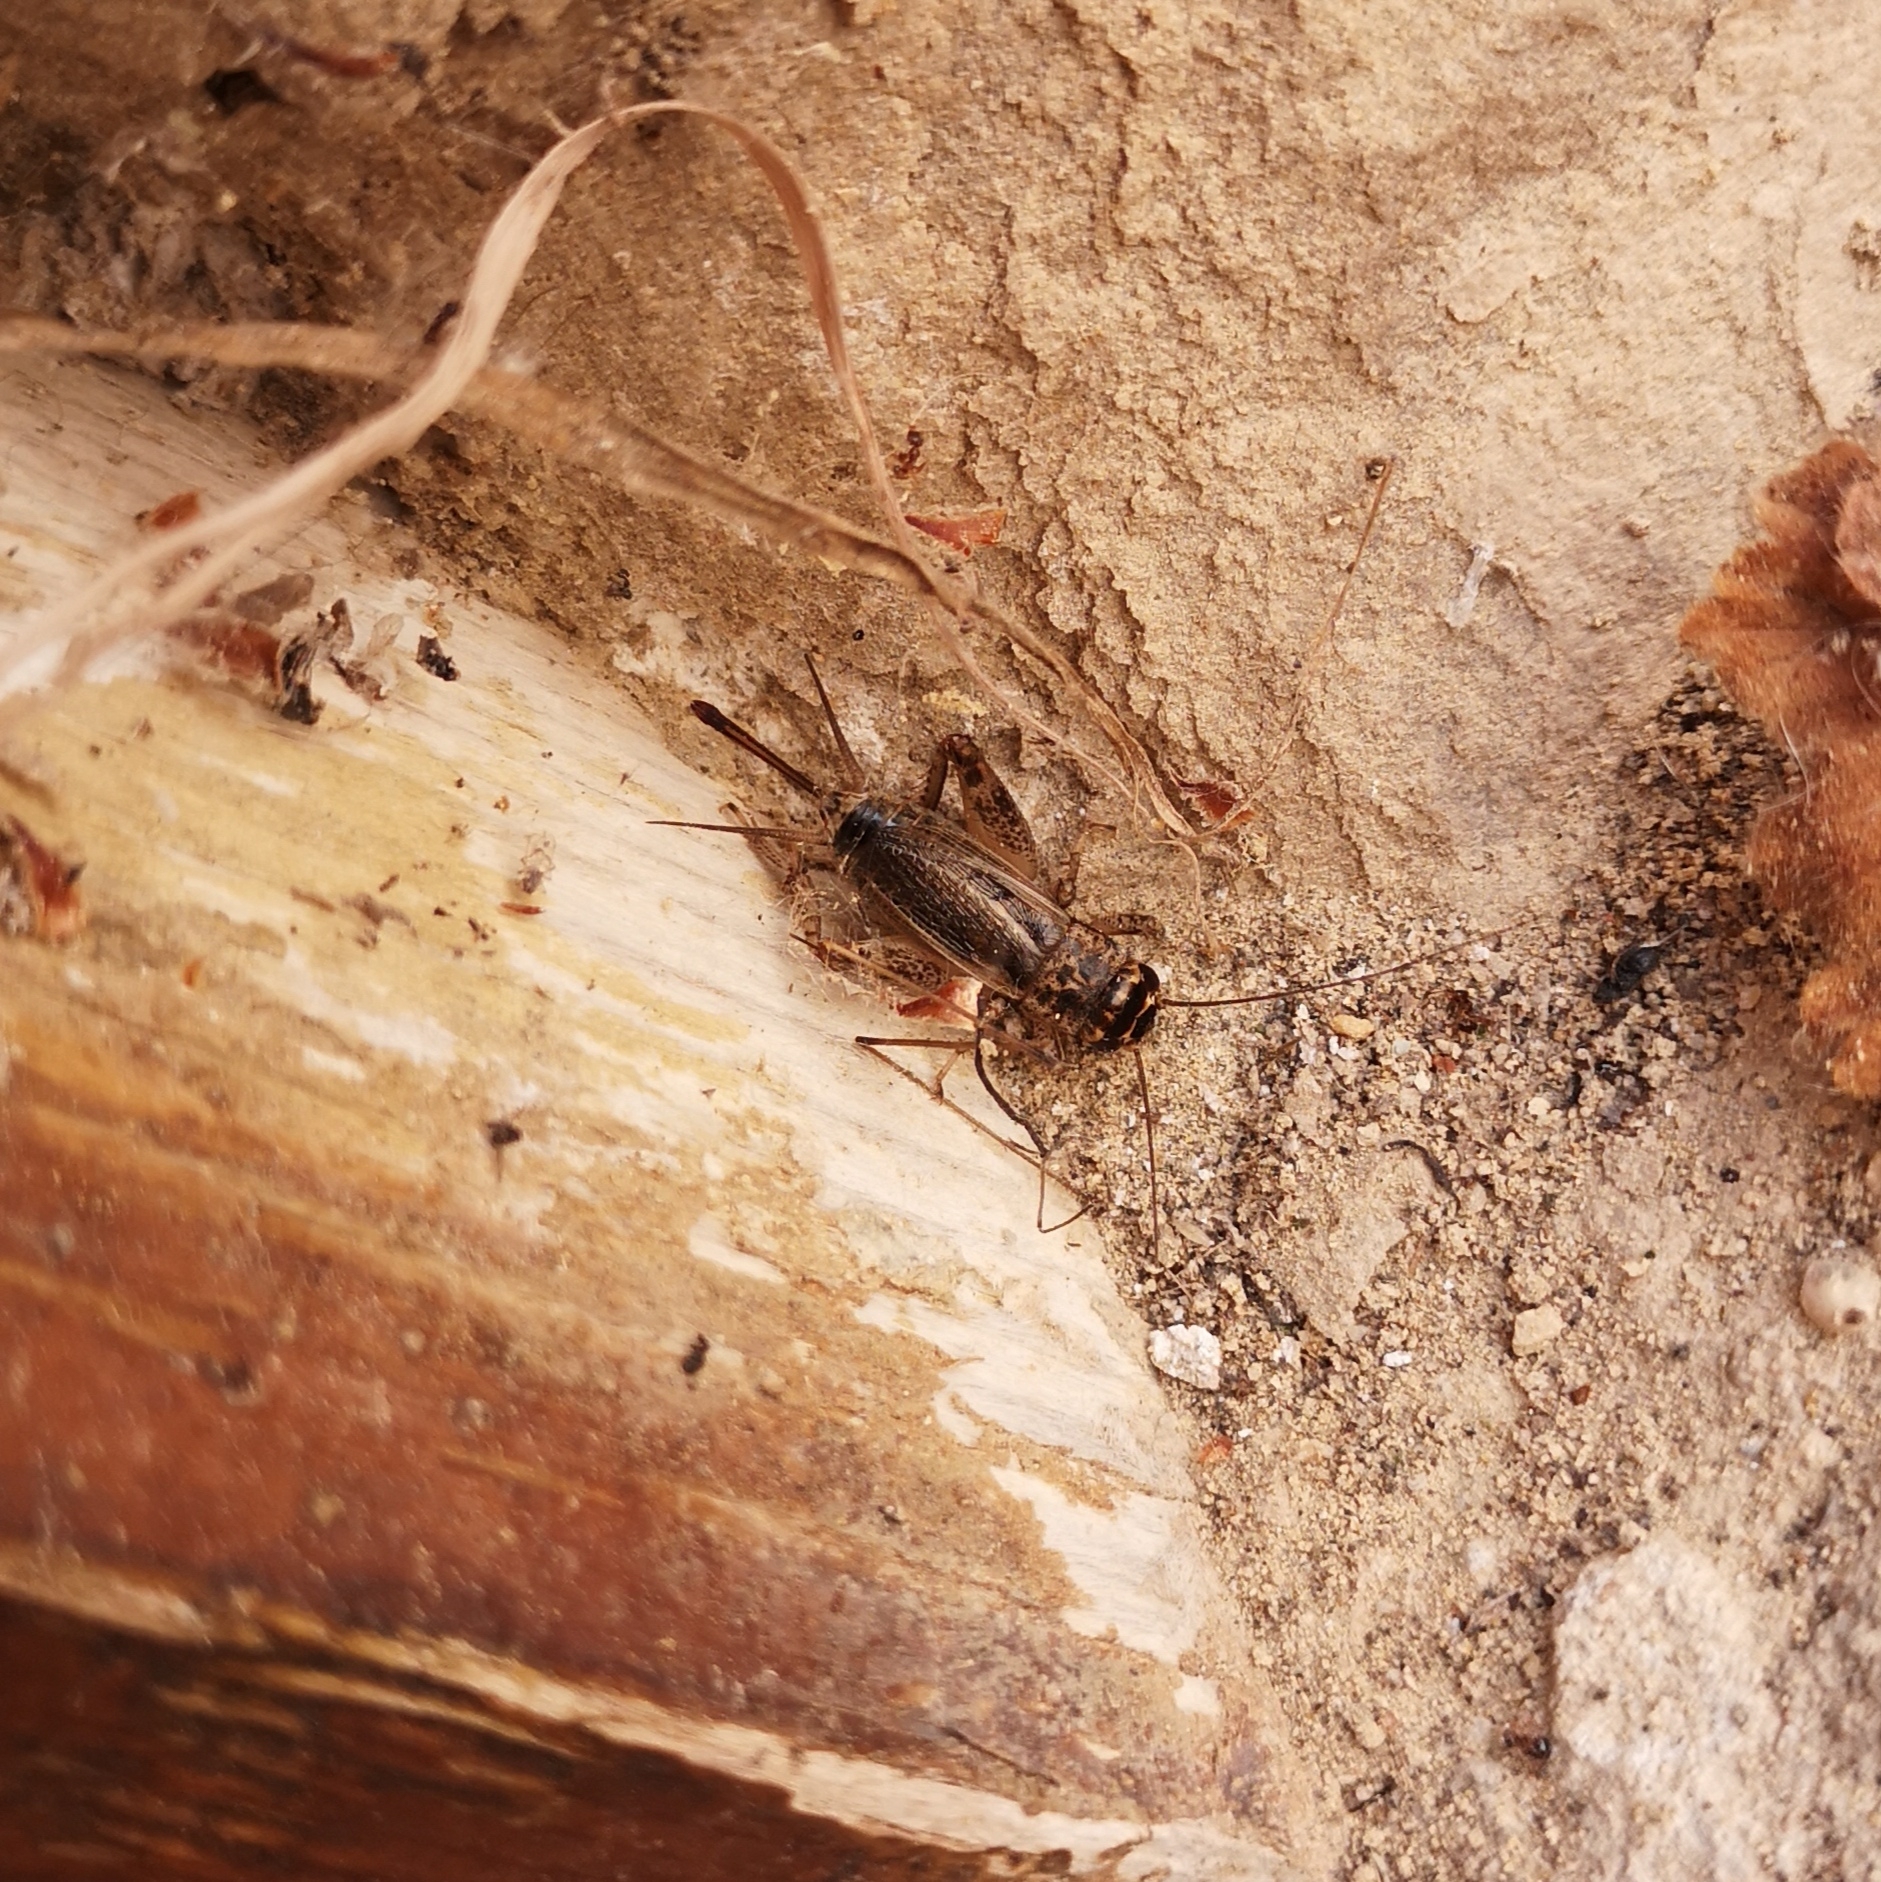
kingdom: Animalia
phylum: Arthropoda
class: Insecta
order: Orthoptera
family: Gryllidae
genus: Eumodicogryllus
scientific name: Eumodicogryllus bordigalensis
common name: Bordeaux cricket
